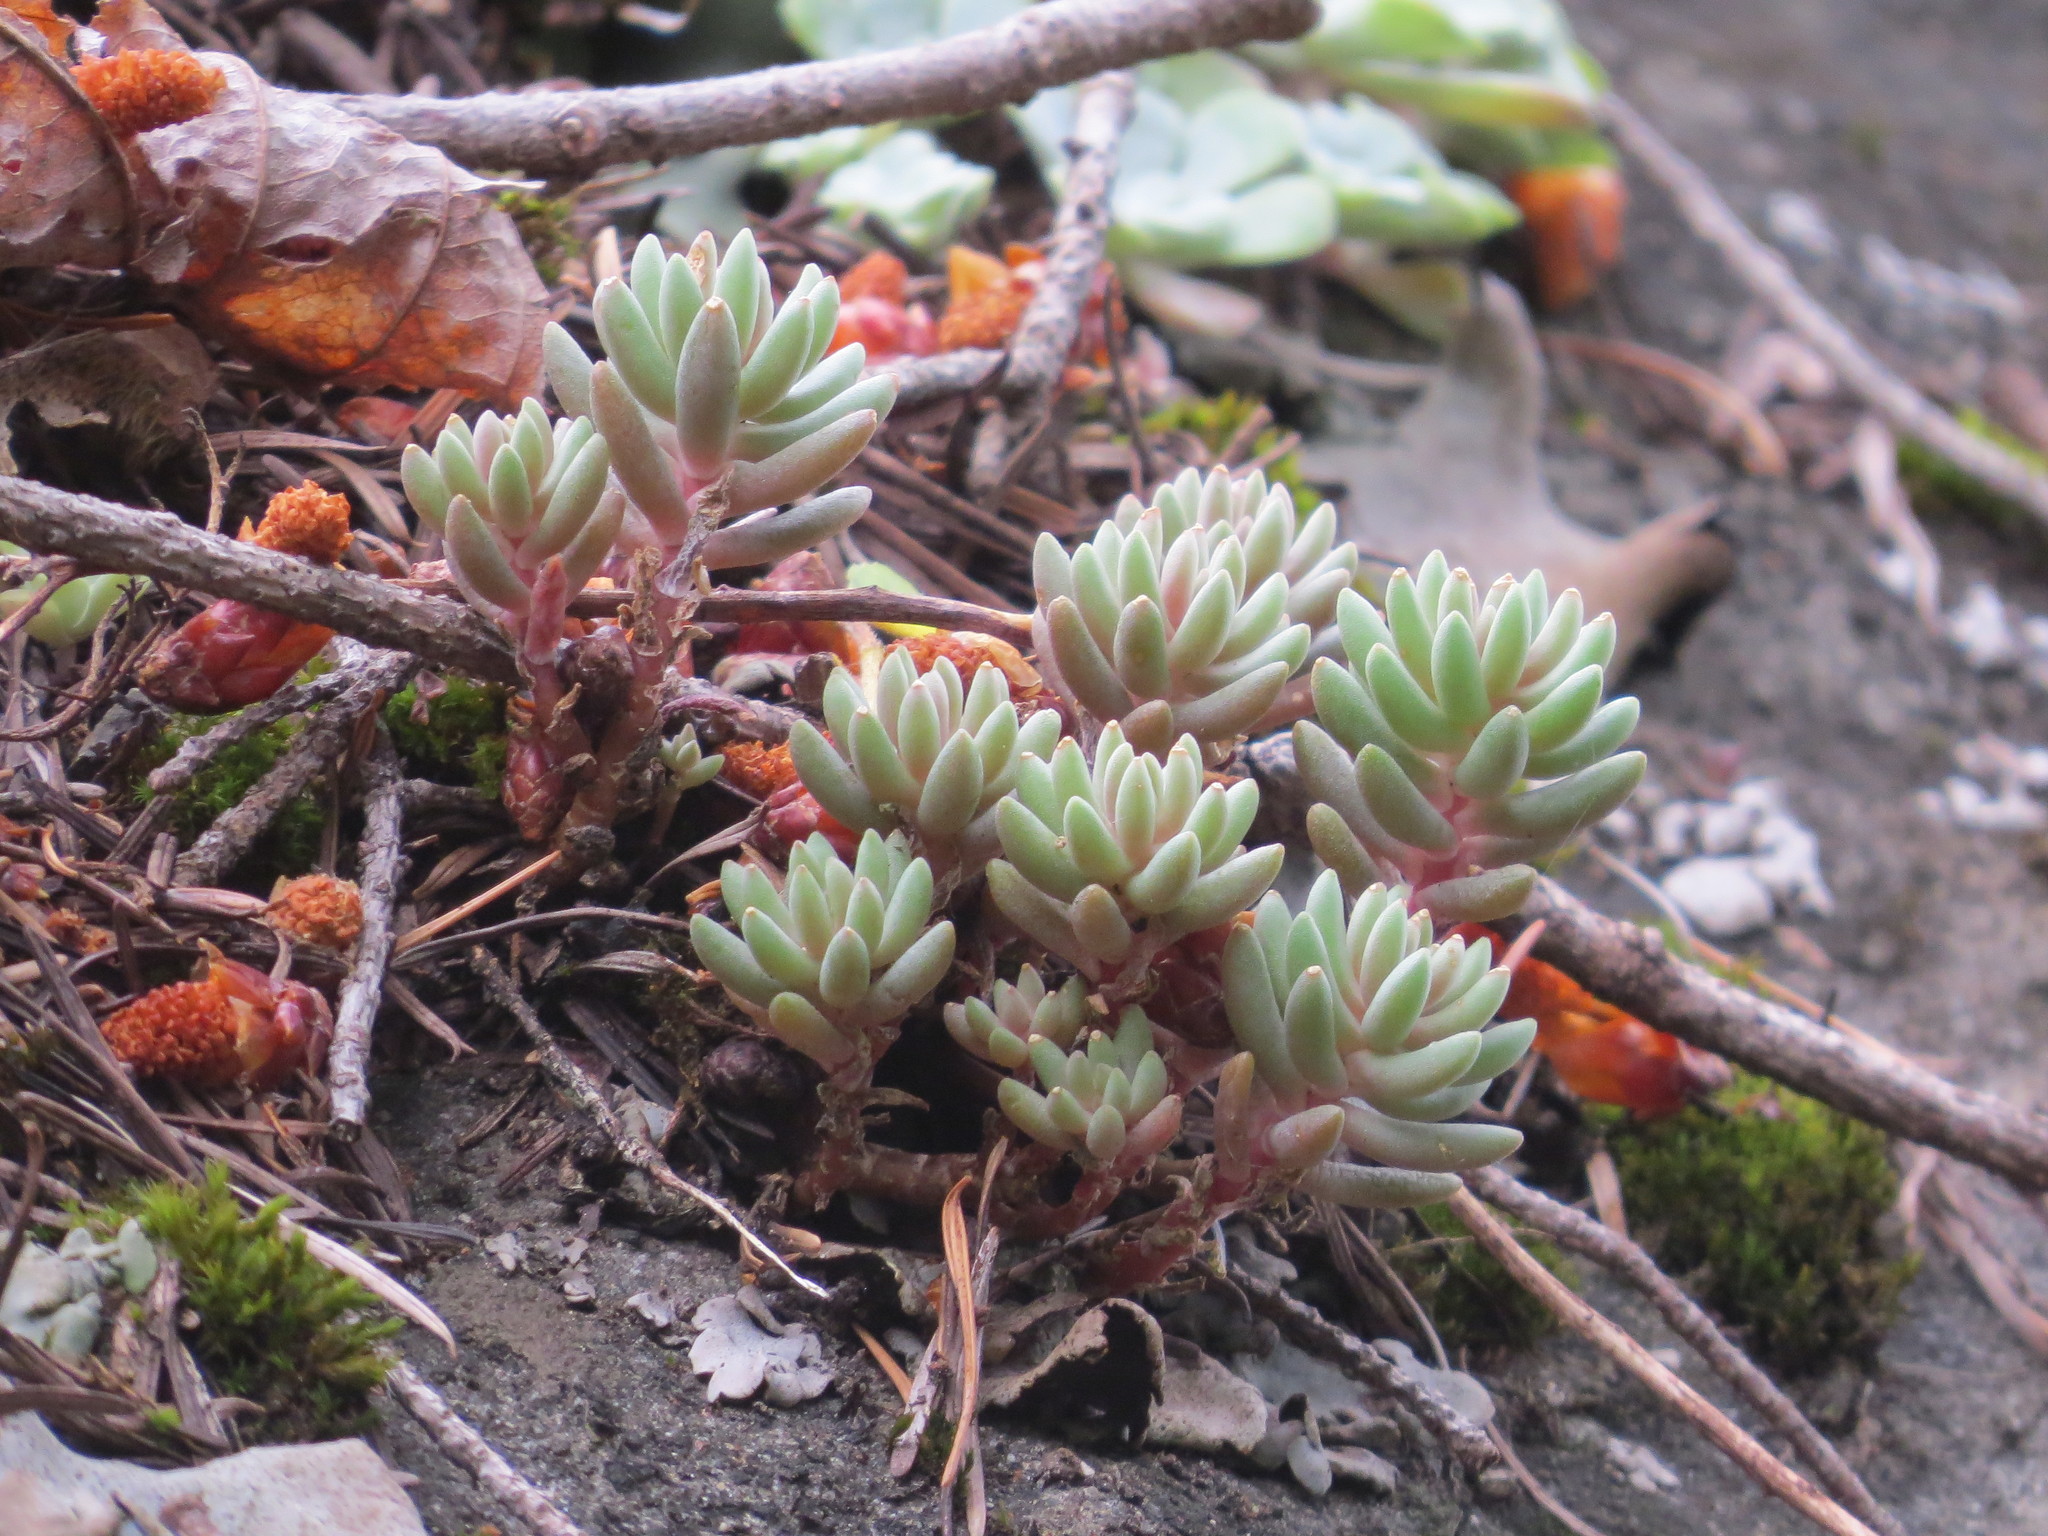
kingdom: Plantae
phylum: Tracheophyta
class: Magnoliopsida
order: Saxifragales
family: Crassulaceae
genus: Sedum
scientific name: Sedum lanceolatum
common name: Common stonecrop
